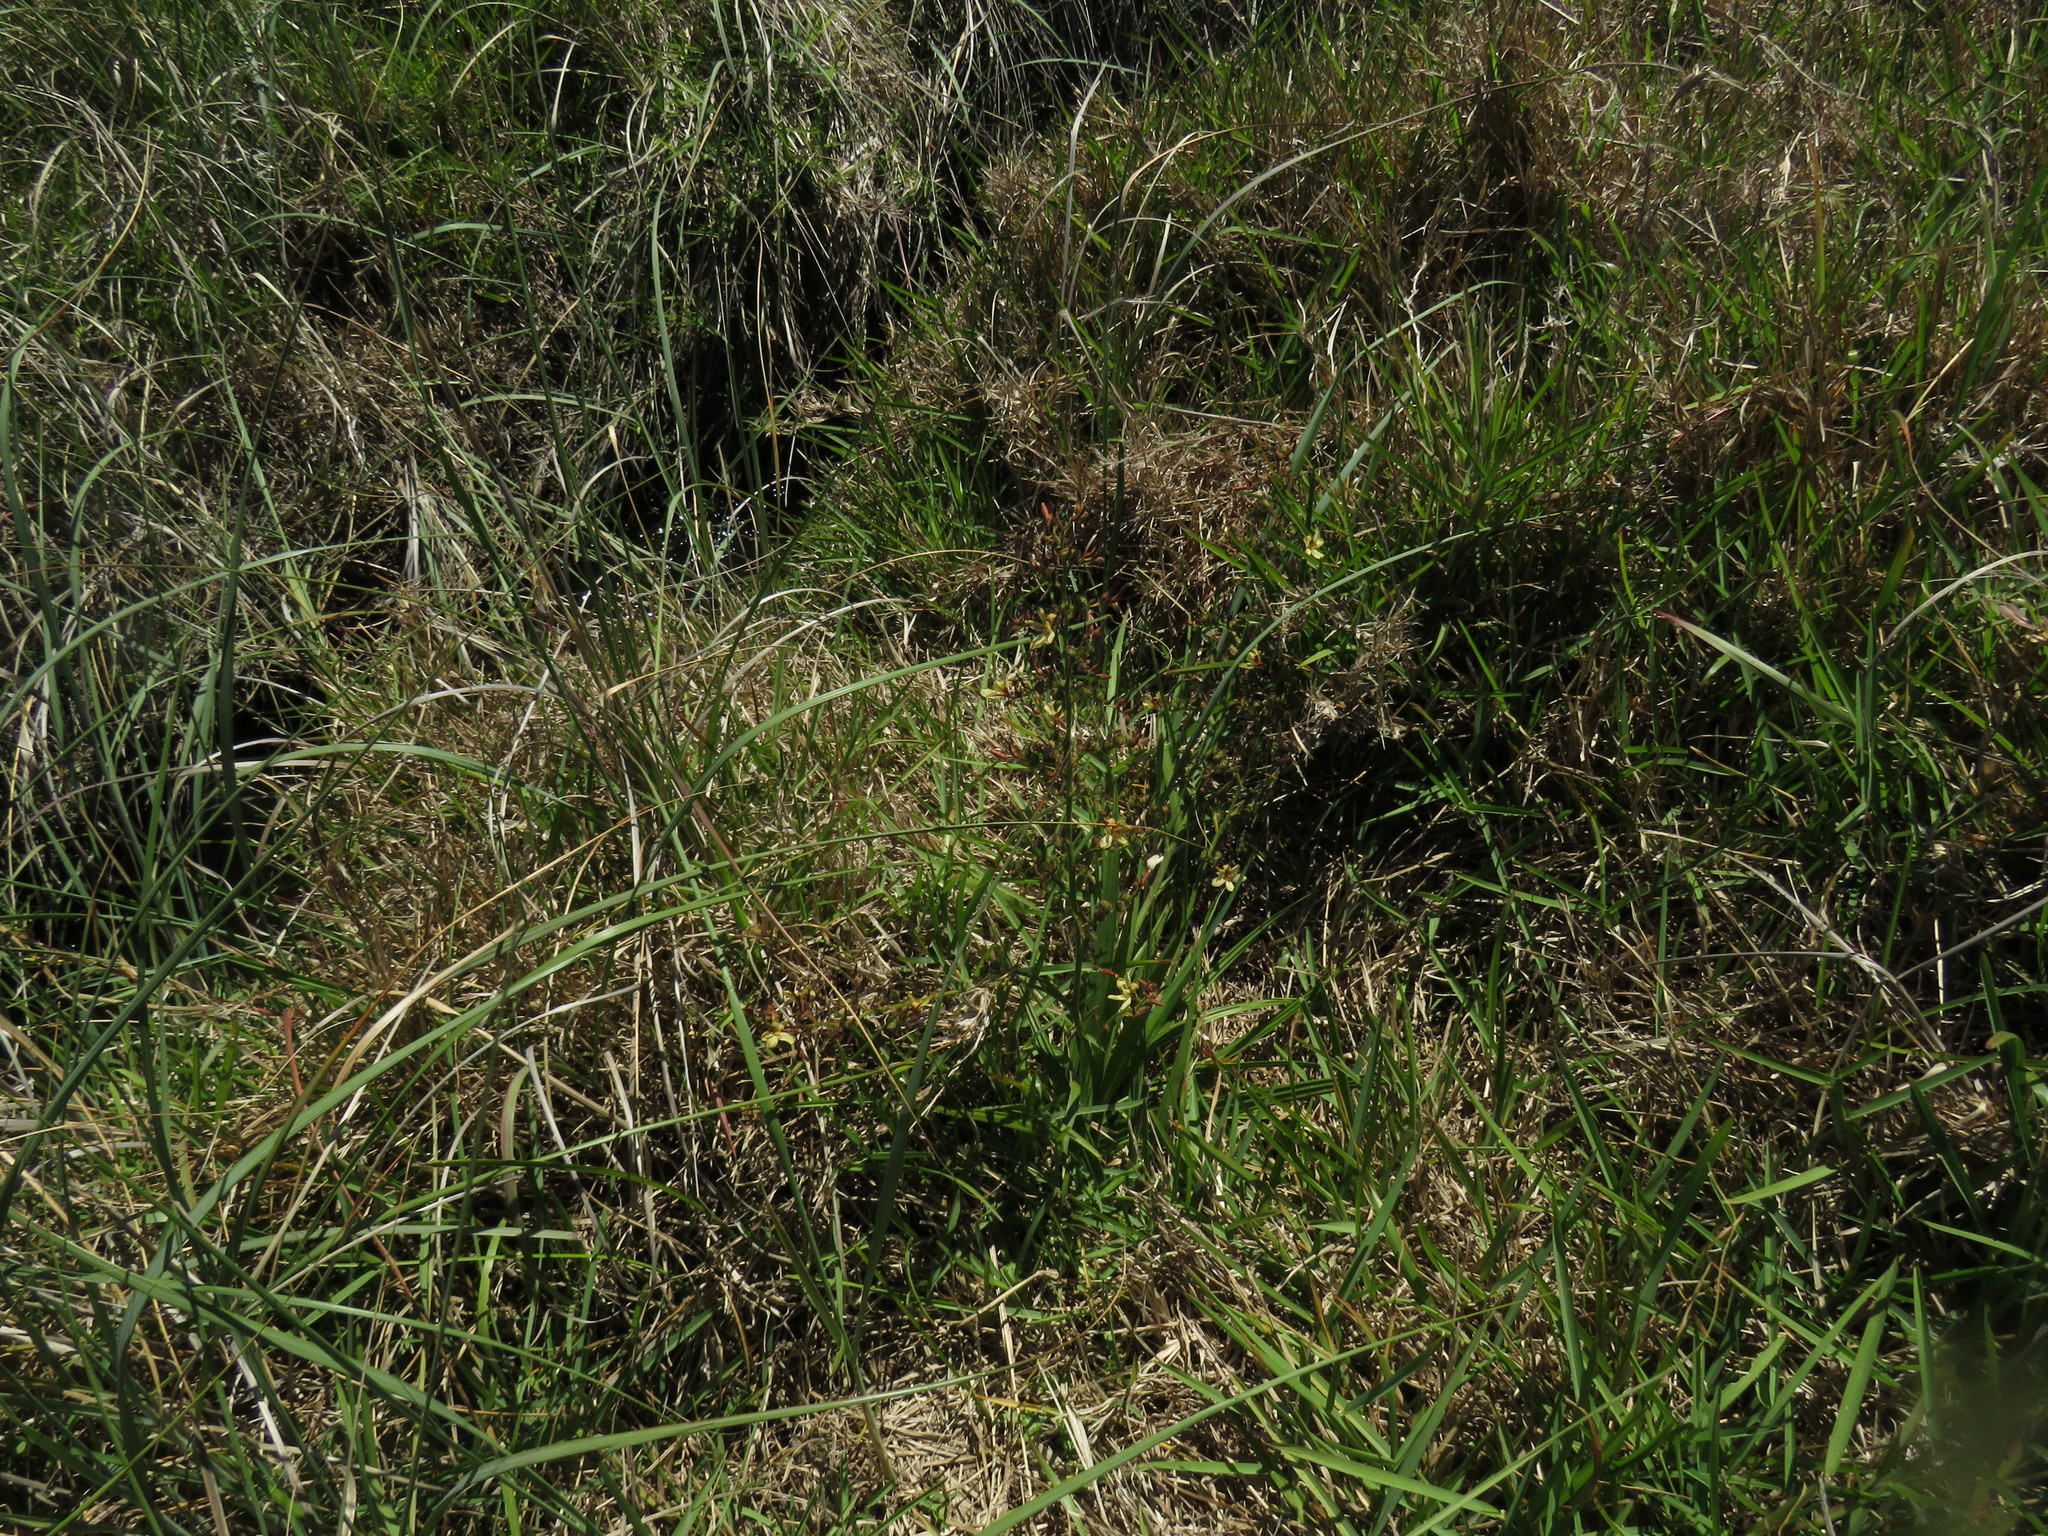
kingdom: Plantae
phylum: Tracheophyta
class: Liliopsida
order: Commelinales
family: Haemodoraceae
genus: Wachendorfia
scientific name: Wachendorfia brachyandra
